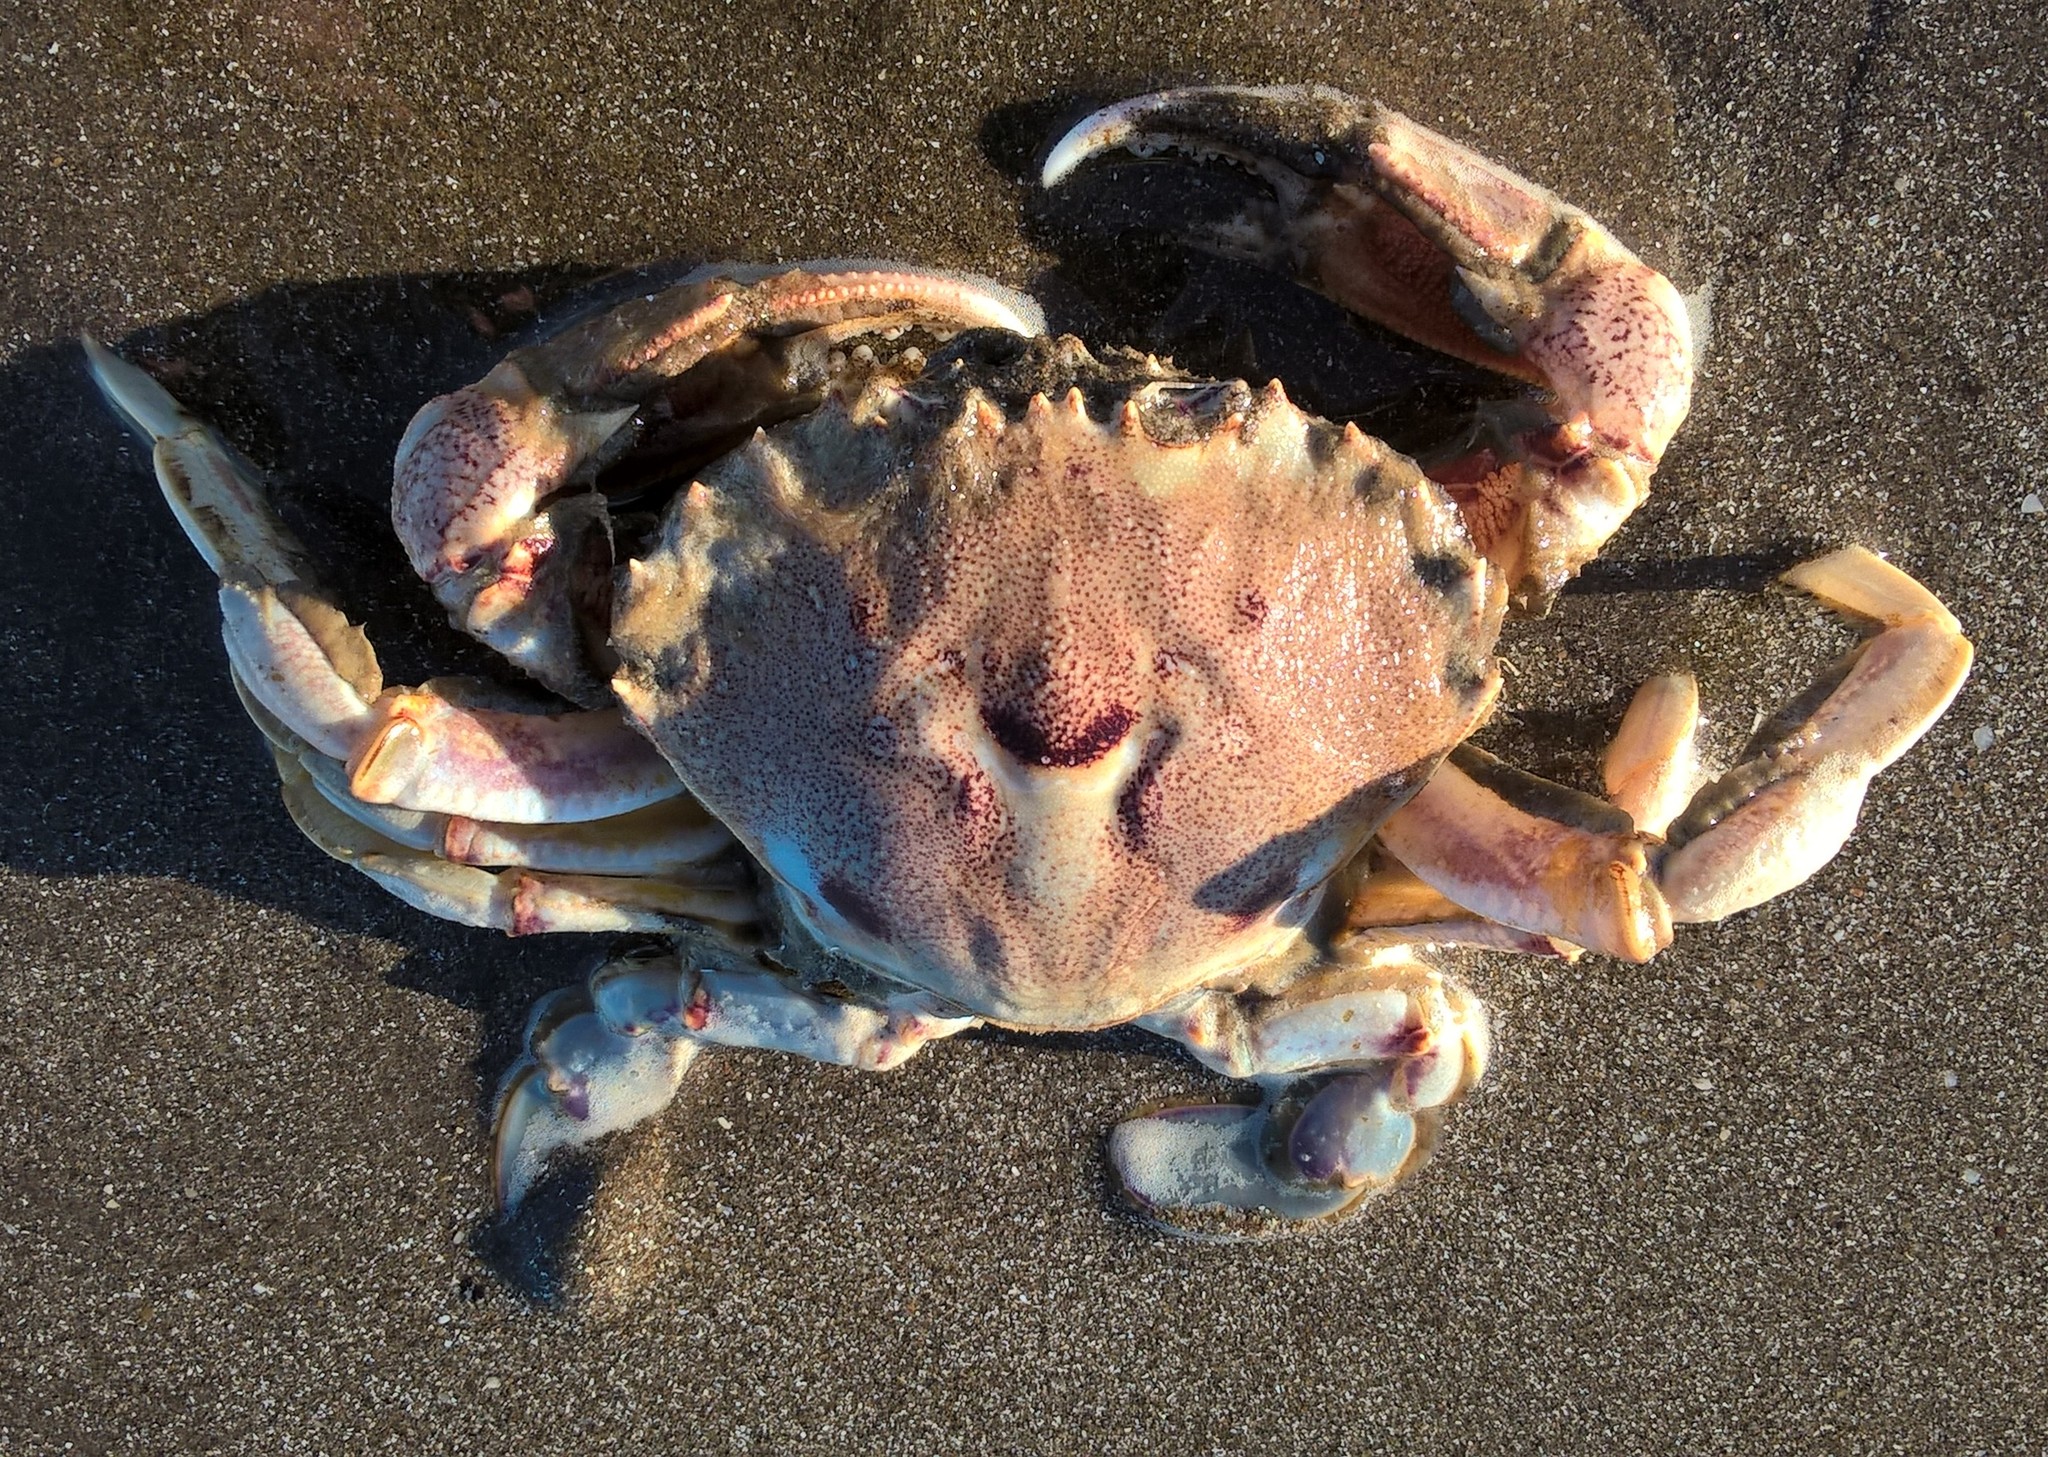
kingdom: Animalia
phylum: Arthropoda
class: Malacostraca
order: Decapoda
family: Ovalipidae
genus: Ovalipes
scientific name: Ovalipes trimaculatus
